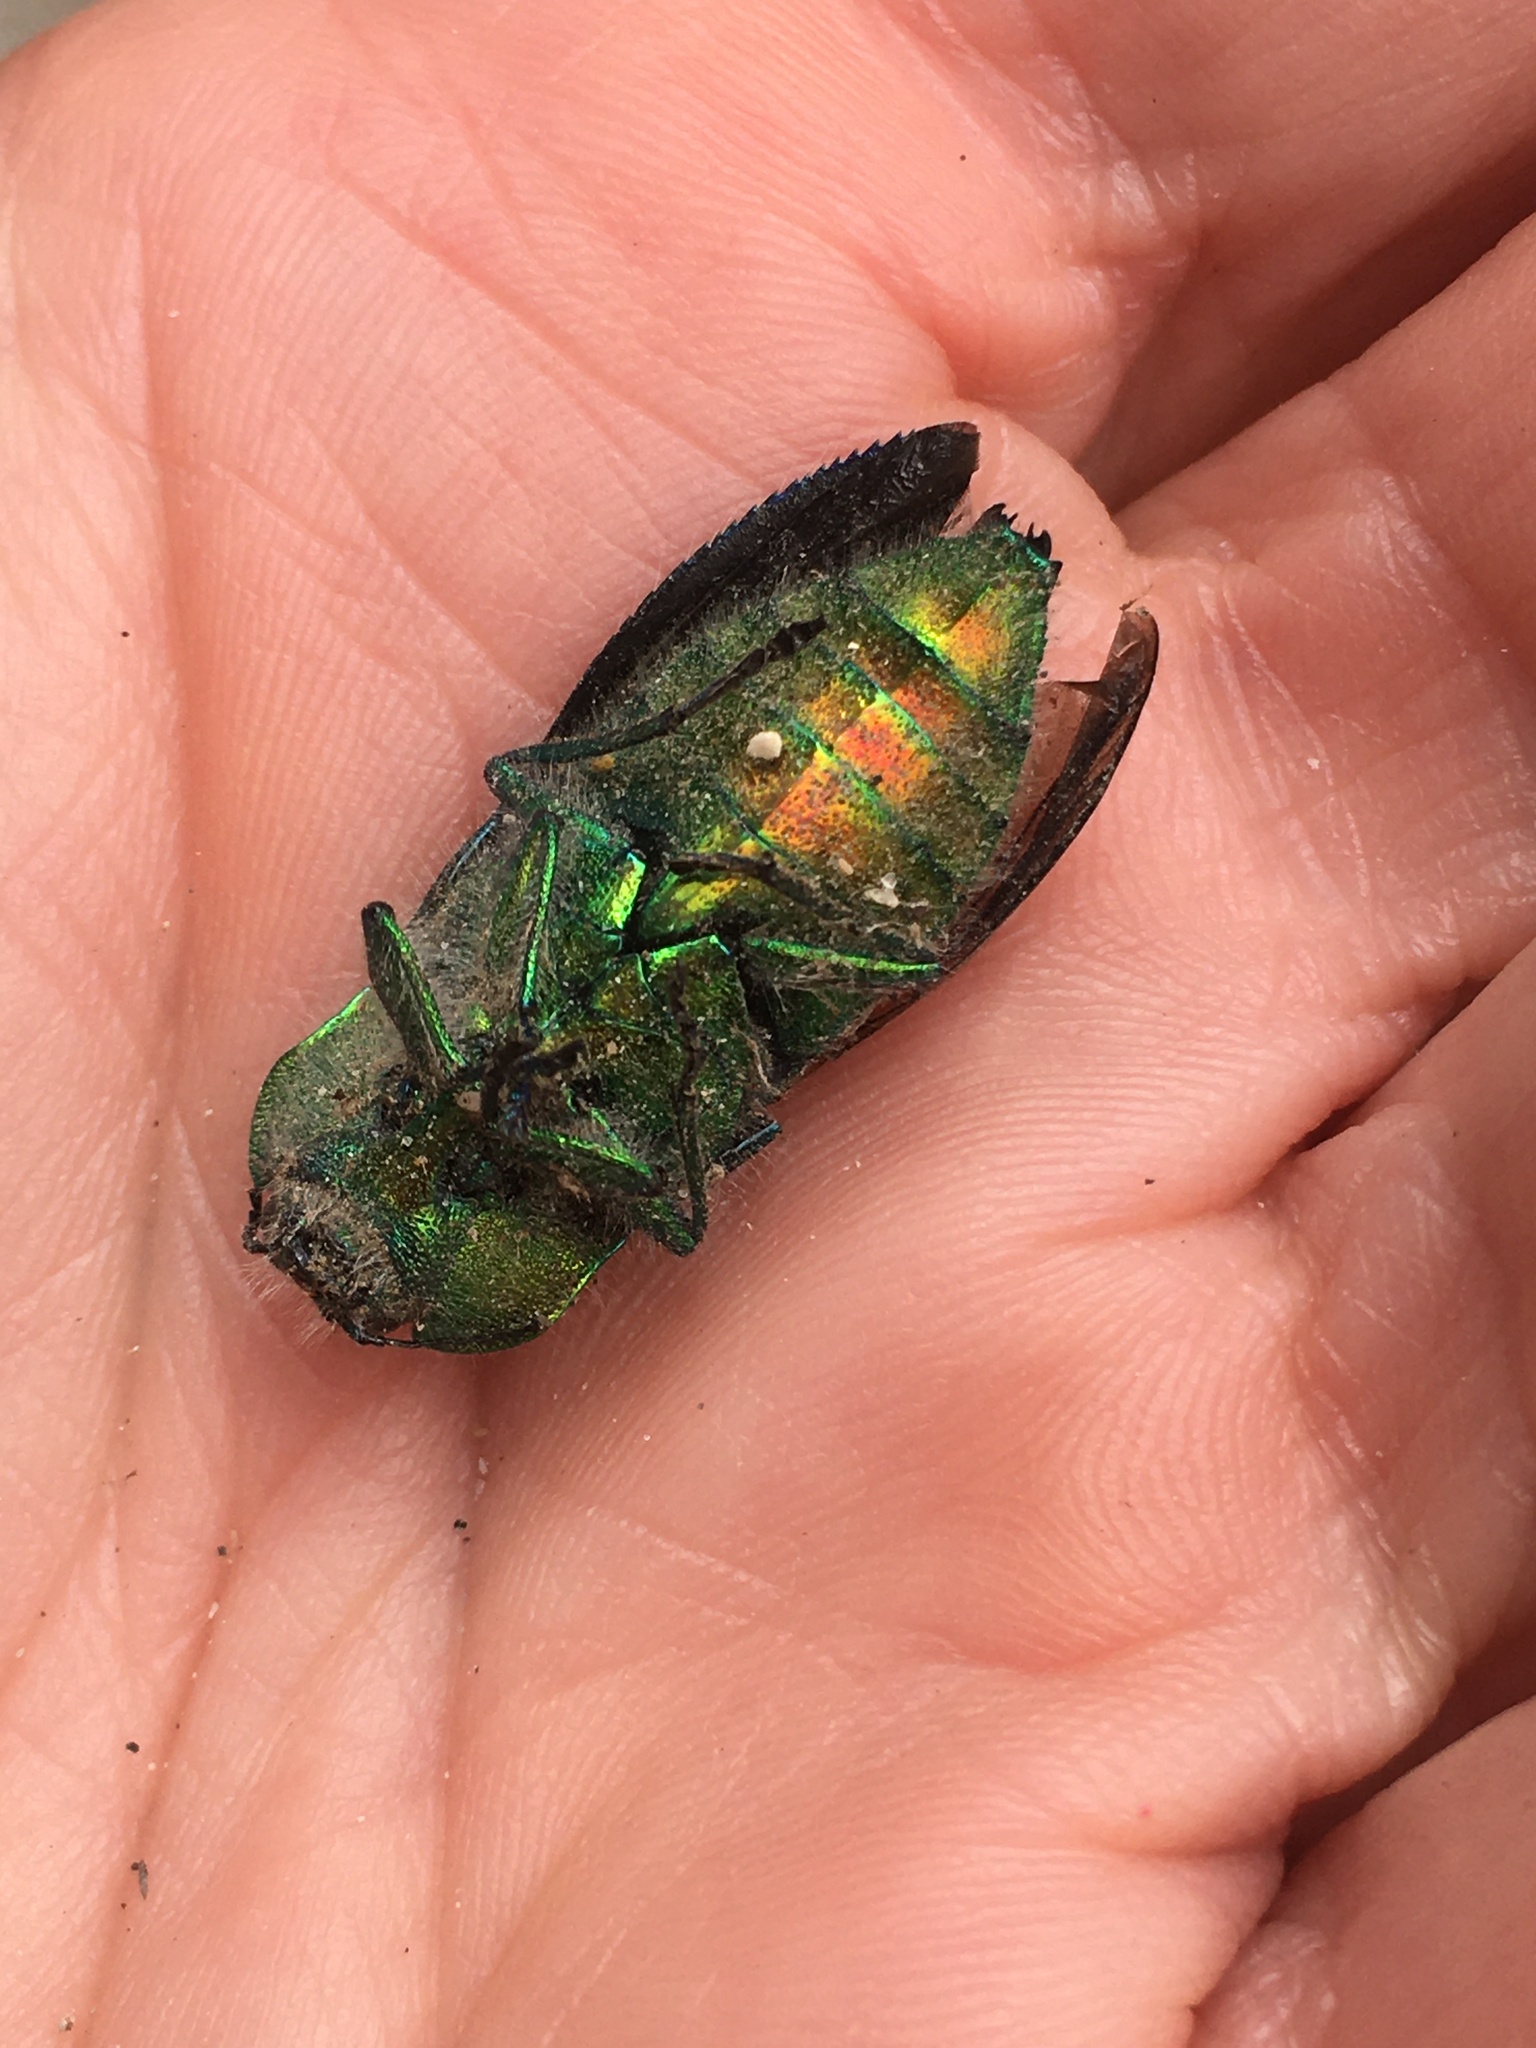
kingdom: Animalia
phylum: Arthropoda
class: Insecta
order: Coleoptera
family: Buprestidae
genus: Hypoprasis
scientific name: Hypoprasis elegans
